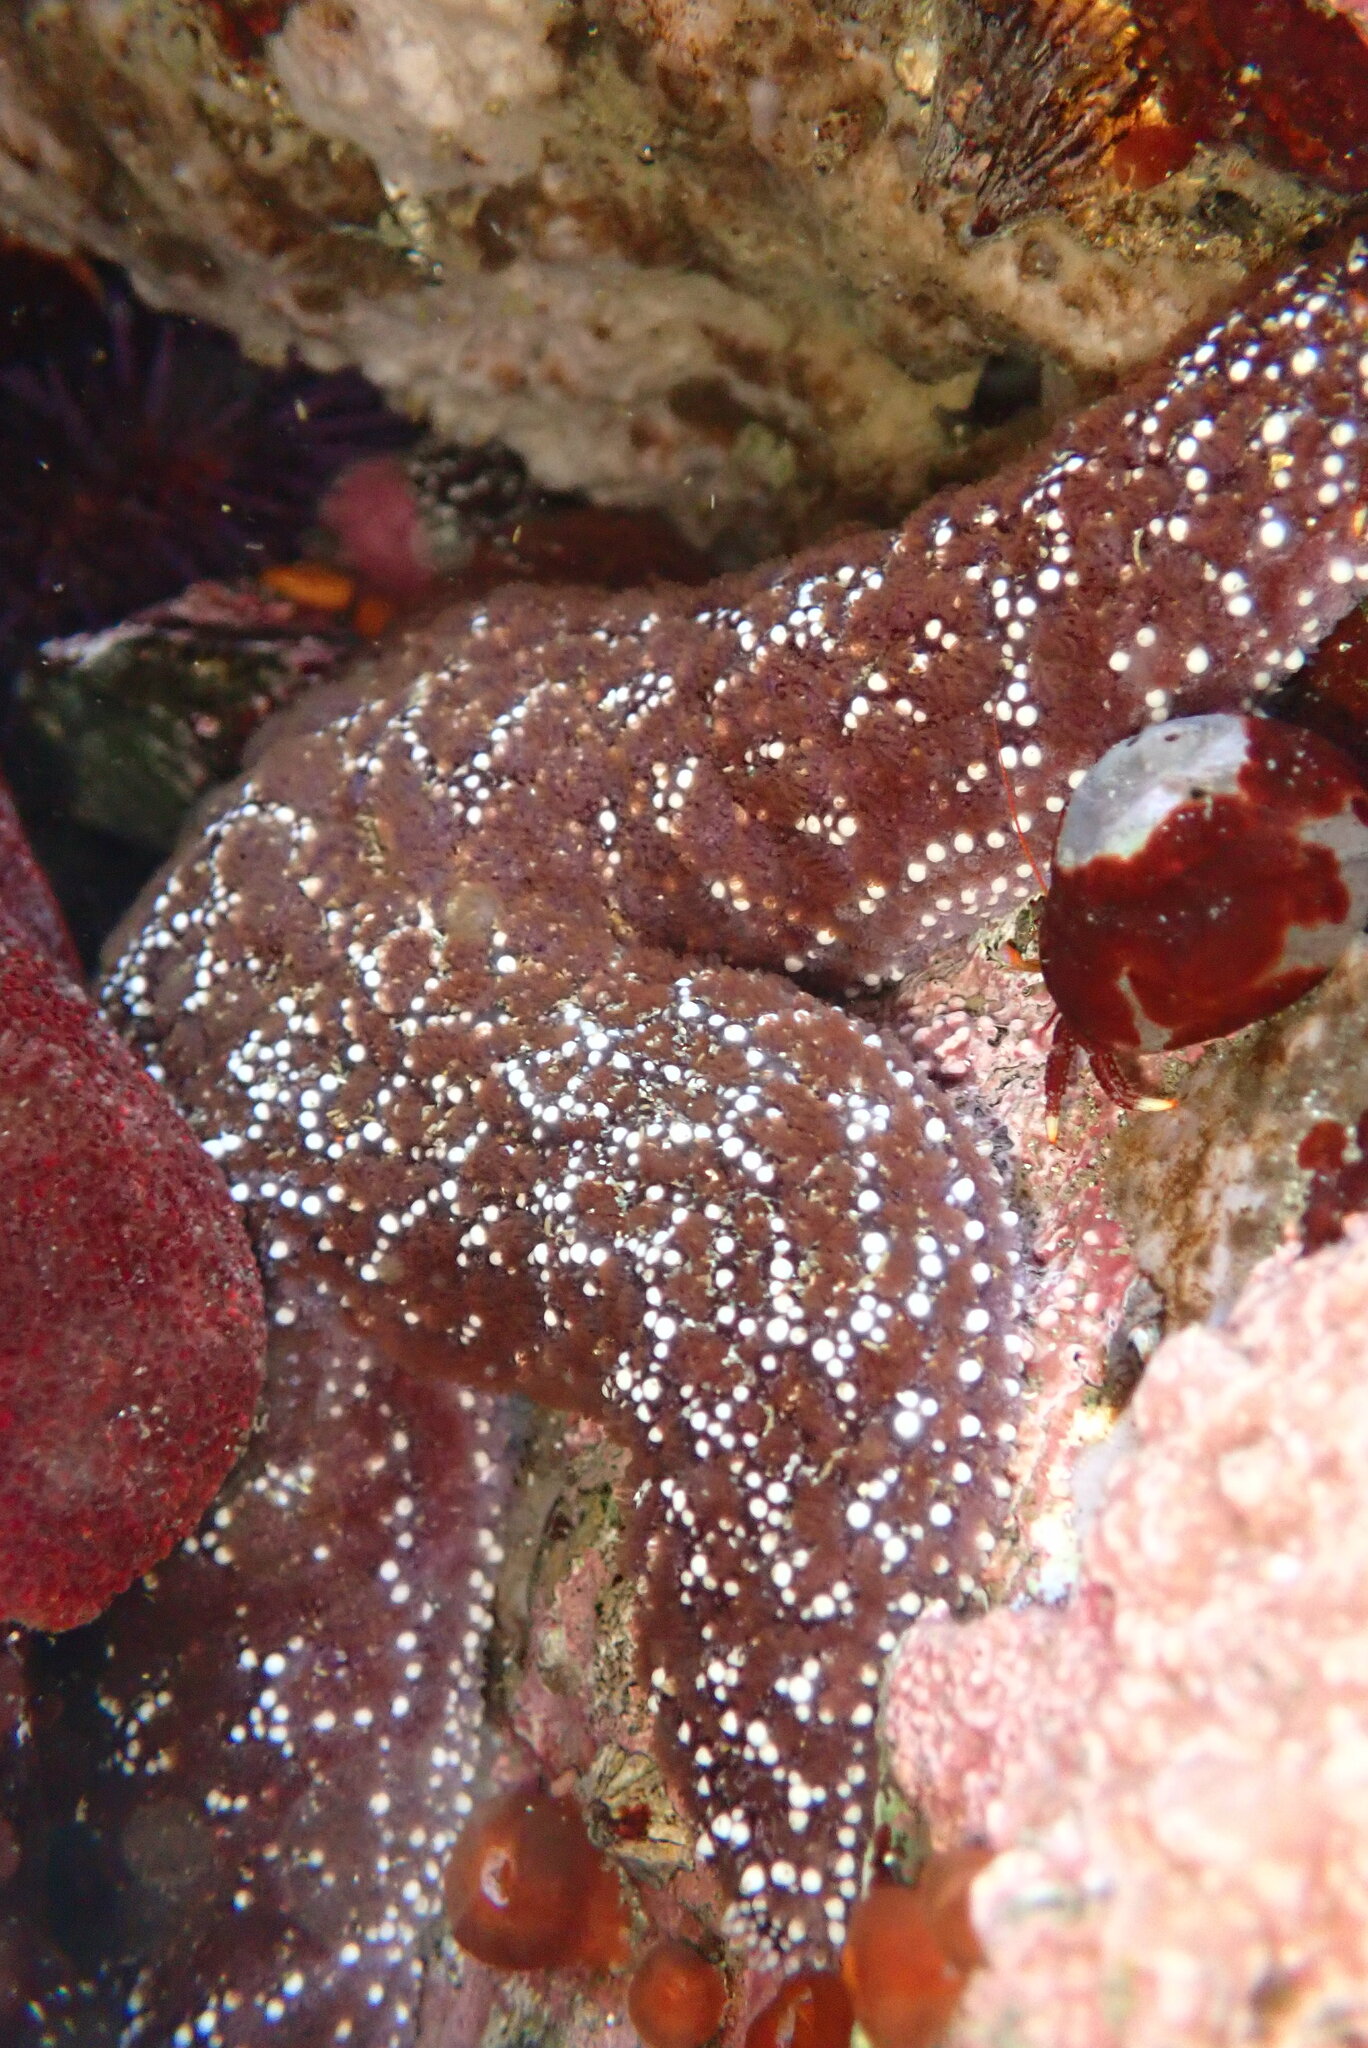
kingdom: Animalia
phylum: Echinodermata
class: Asteroidea
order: Forcipulatida
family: Asteriidae
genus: Pisaster
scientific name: Pisaster ochraceus
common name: Ochre stars
